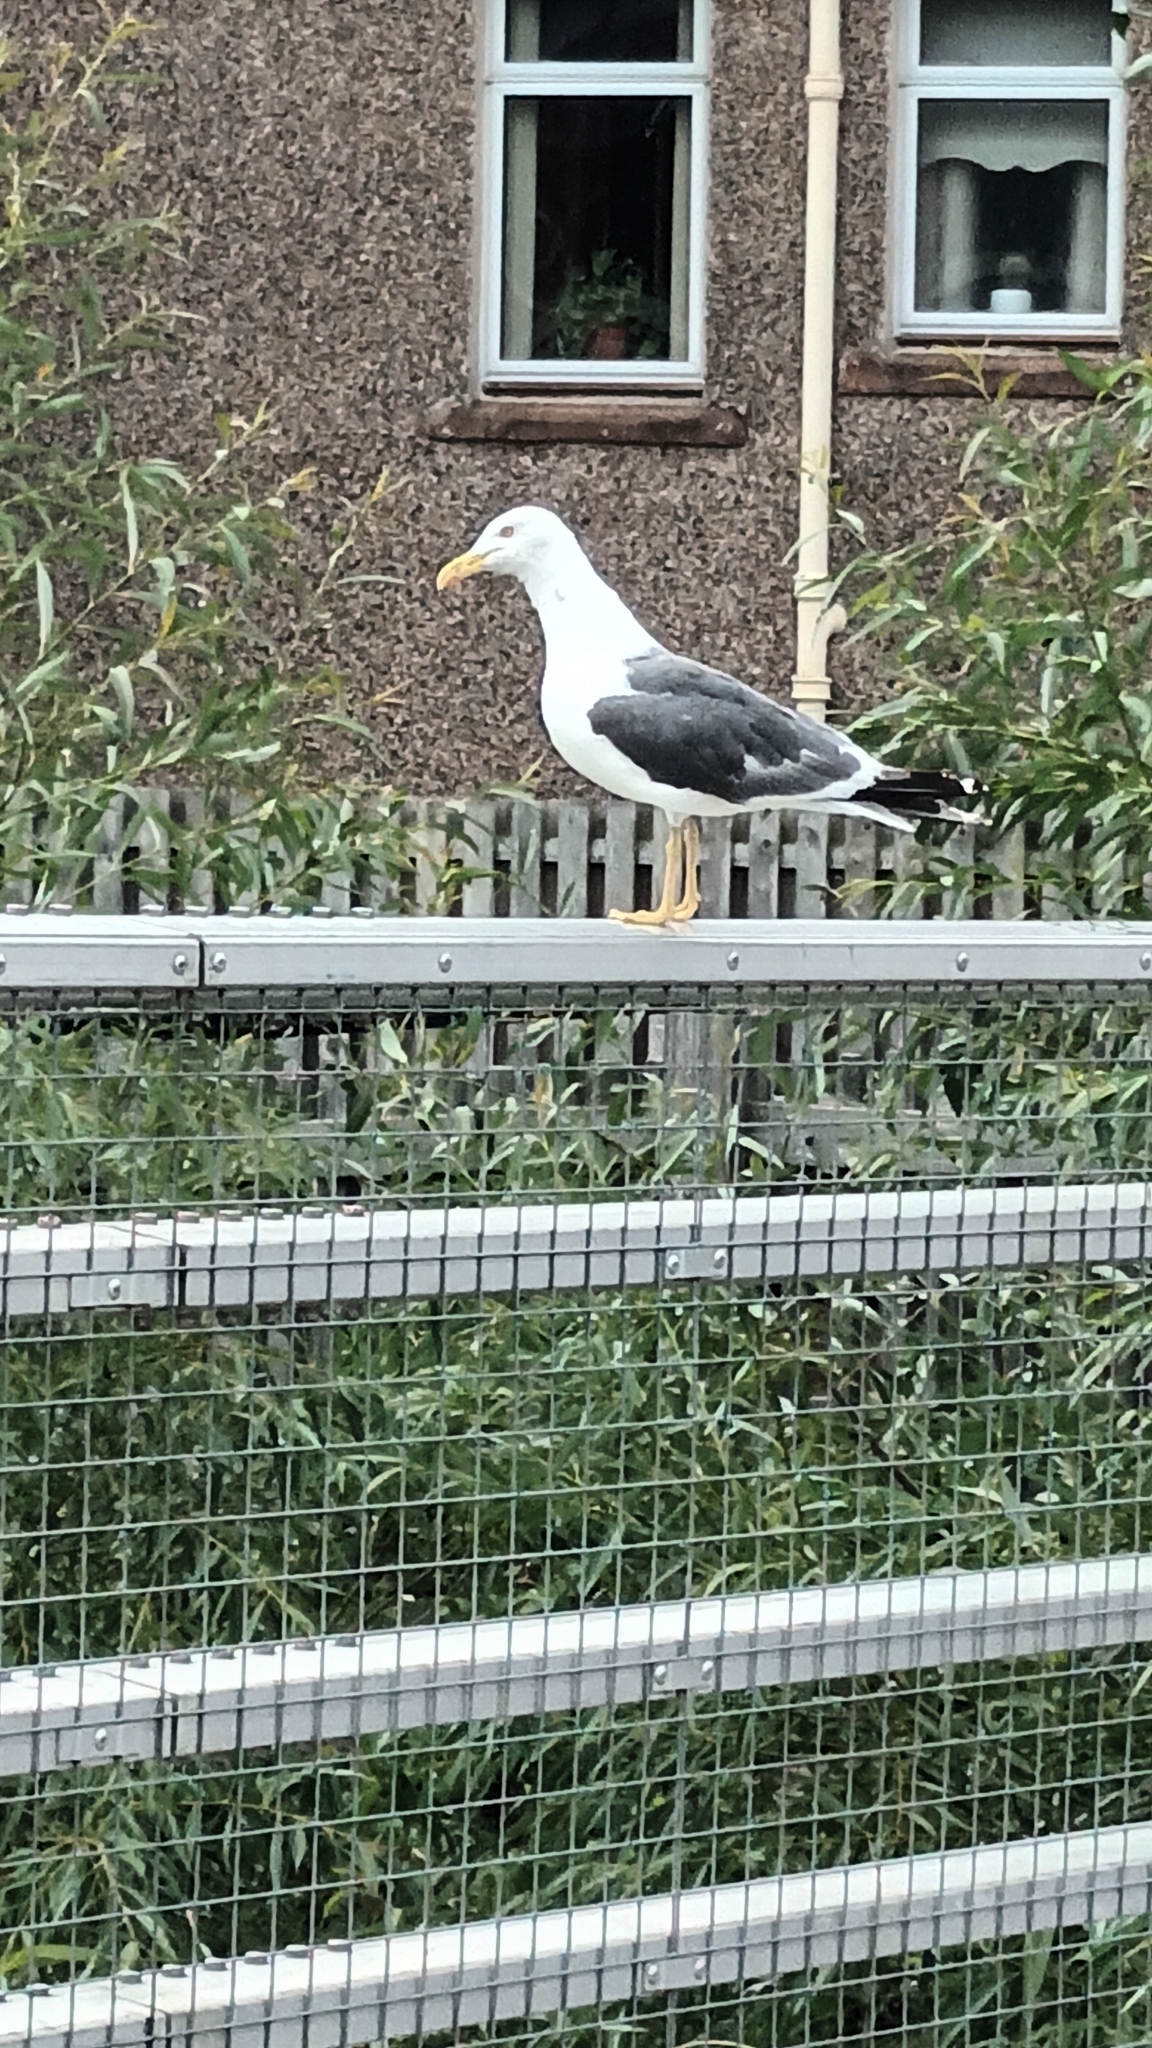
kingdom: Animalia
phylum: Chordata
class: Aves
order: Charadriiformes
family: Laridae
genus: Larus
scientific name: Larus fuscus
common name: Lesser black-backed gull
